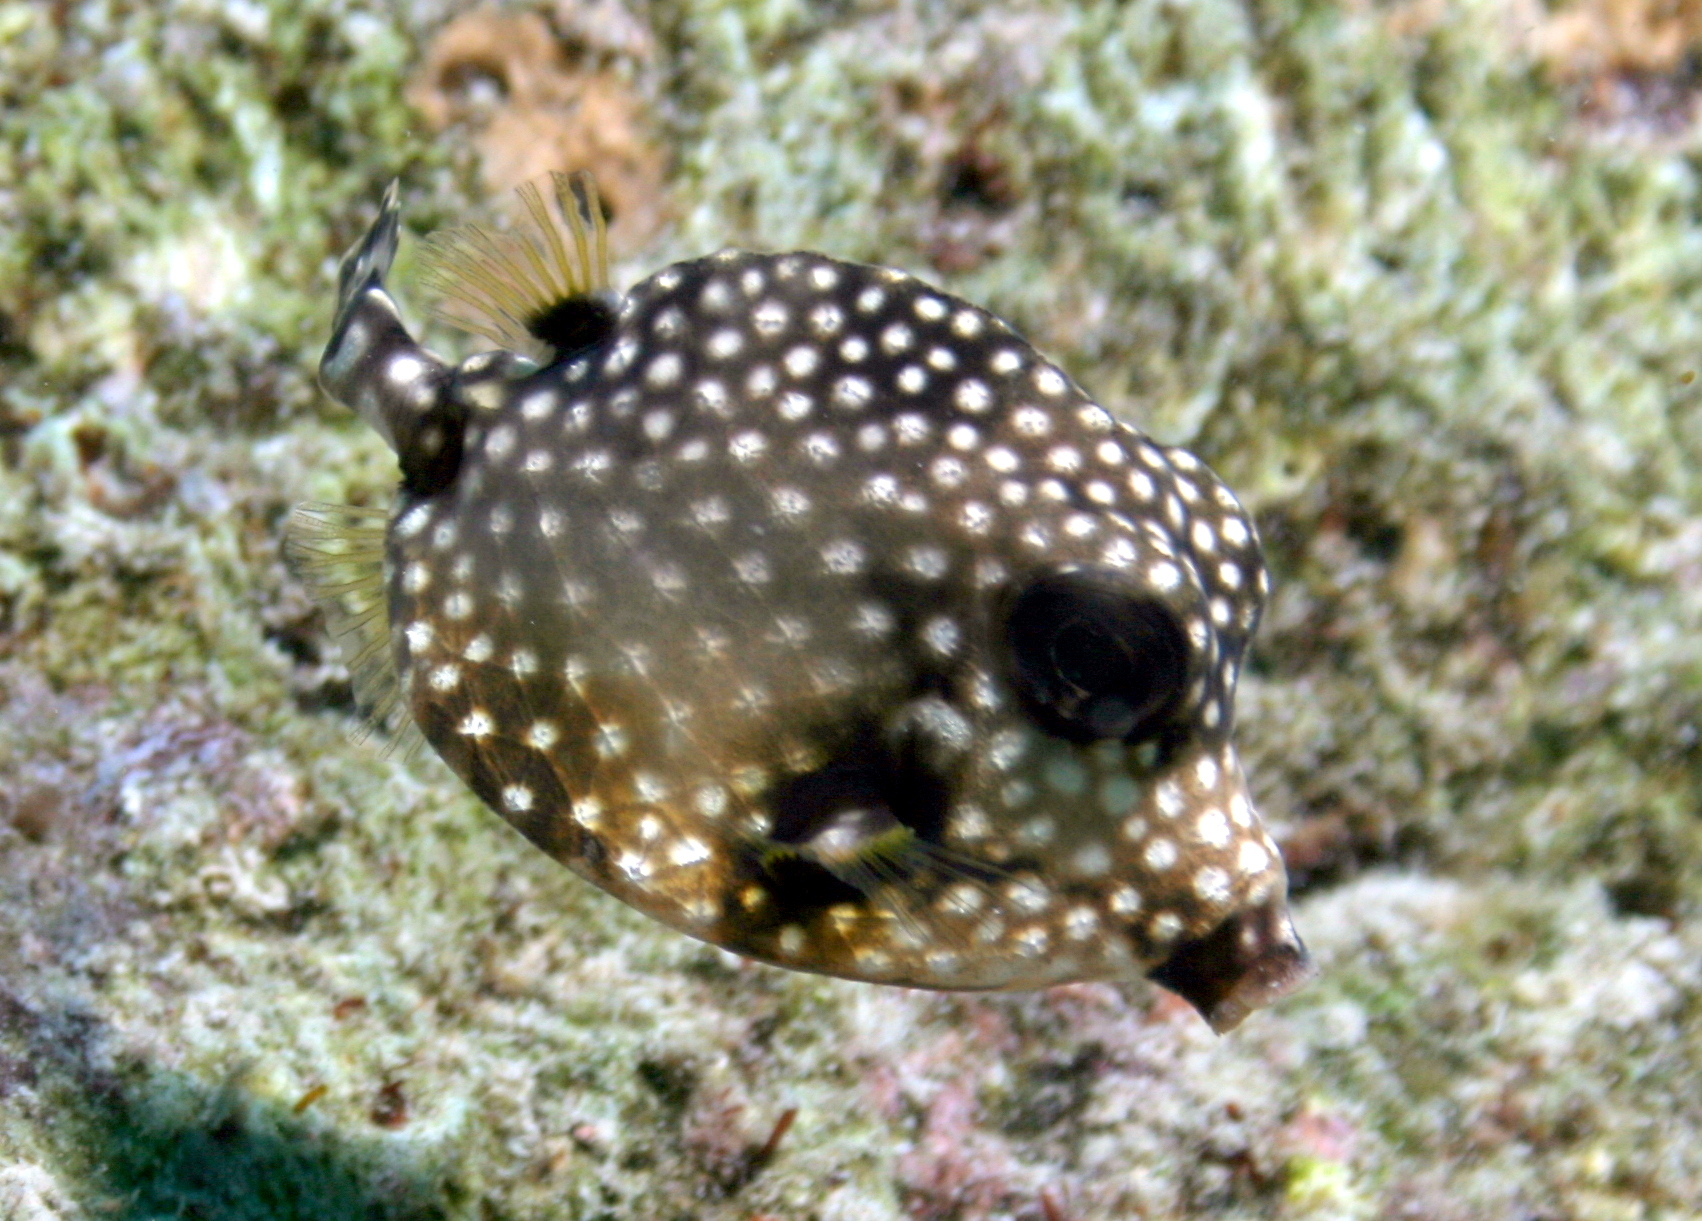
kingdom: Animalia
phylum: Chordata
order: Tetraodontiformes
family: Ostraciidae
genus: Lactophrys
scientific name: Lactophrys triqueter
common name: Smooth trunkfish
